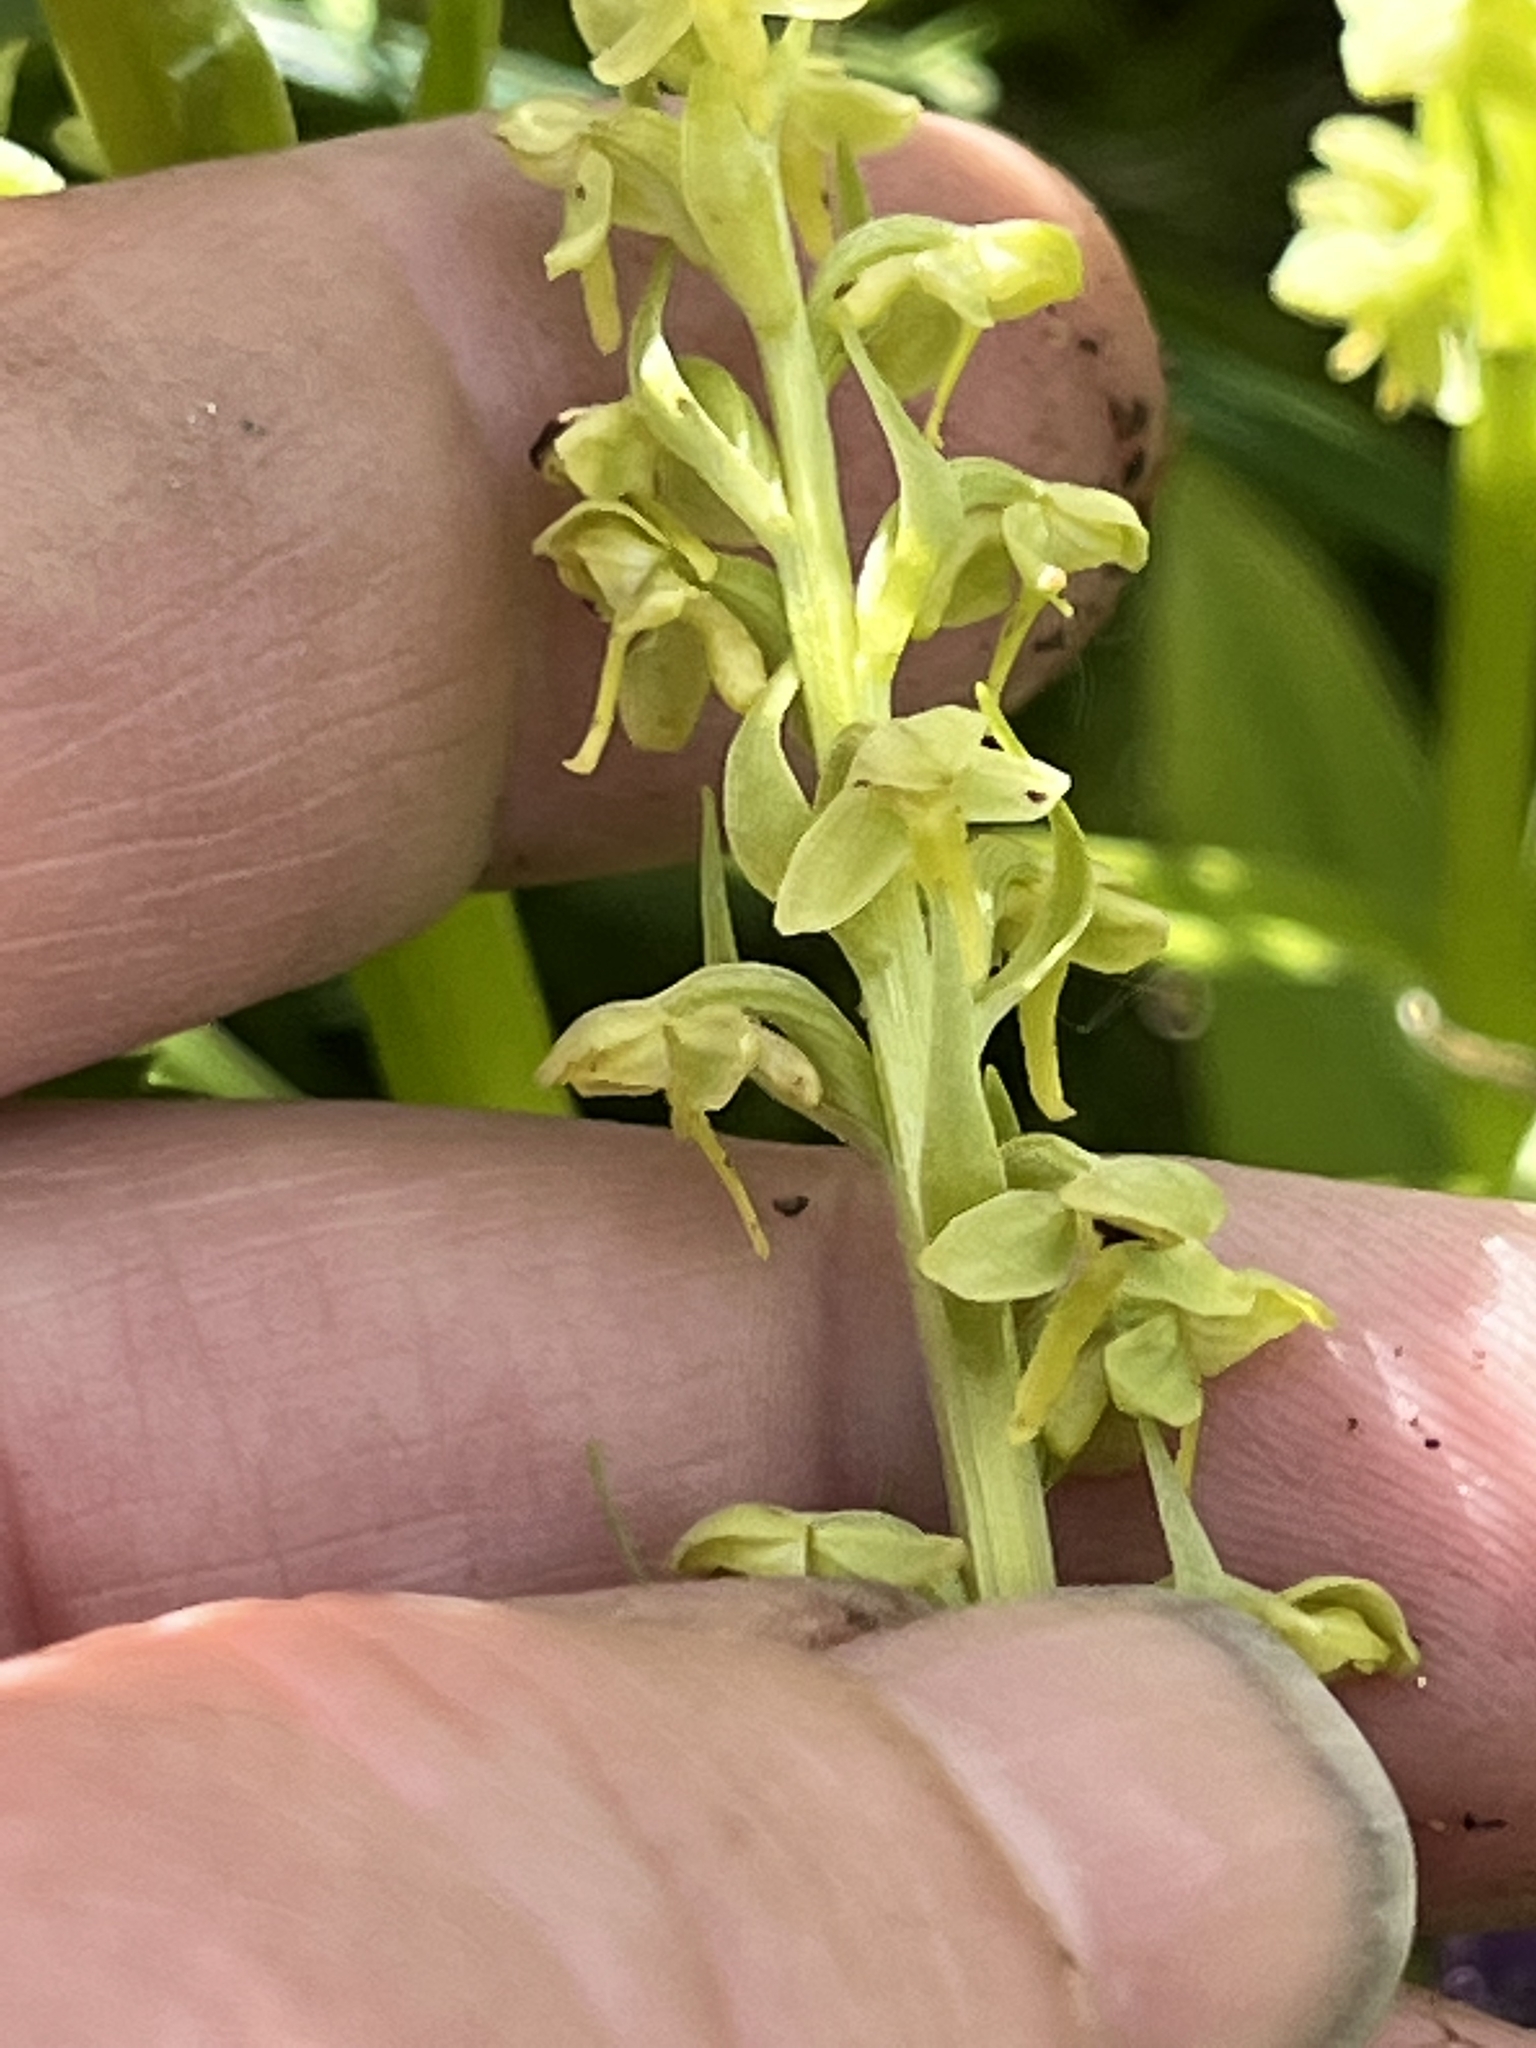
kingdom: Plantae
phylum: Tracheophyta
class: Liliopsida
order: Asparagales
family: Orchidaceae
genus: Platanthera
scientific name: Platanthera stricta
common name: Slender bog orchid
